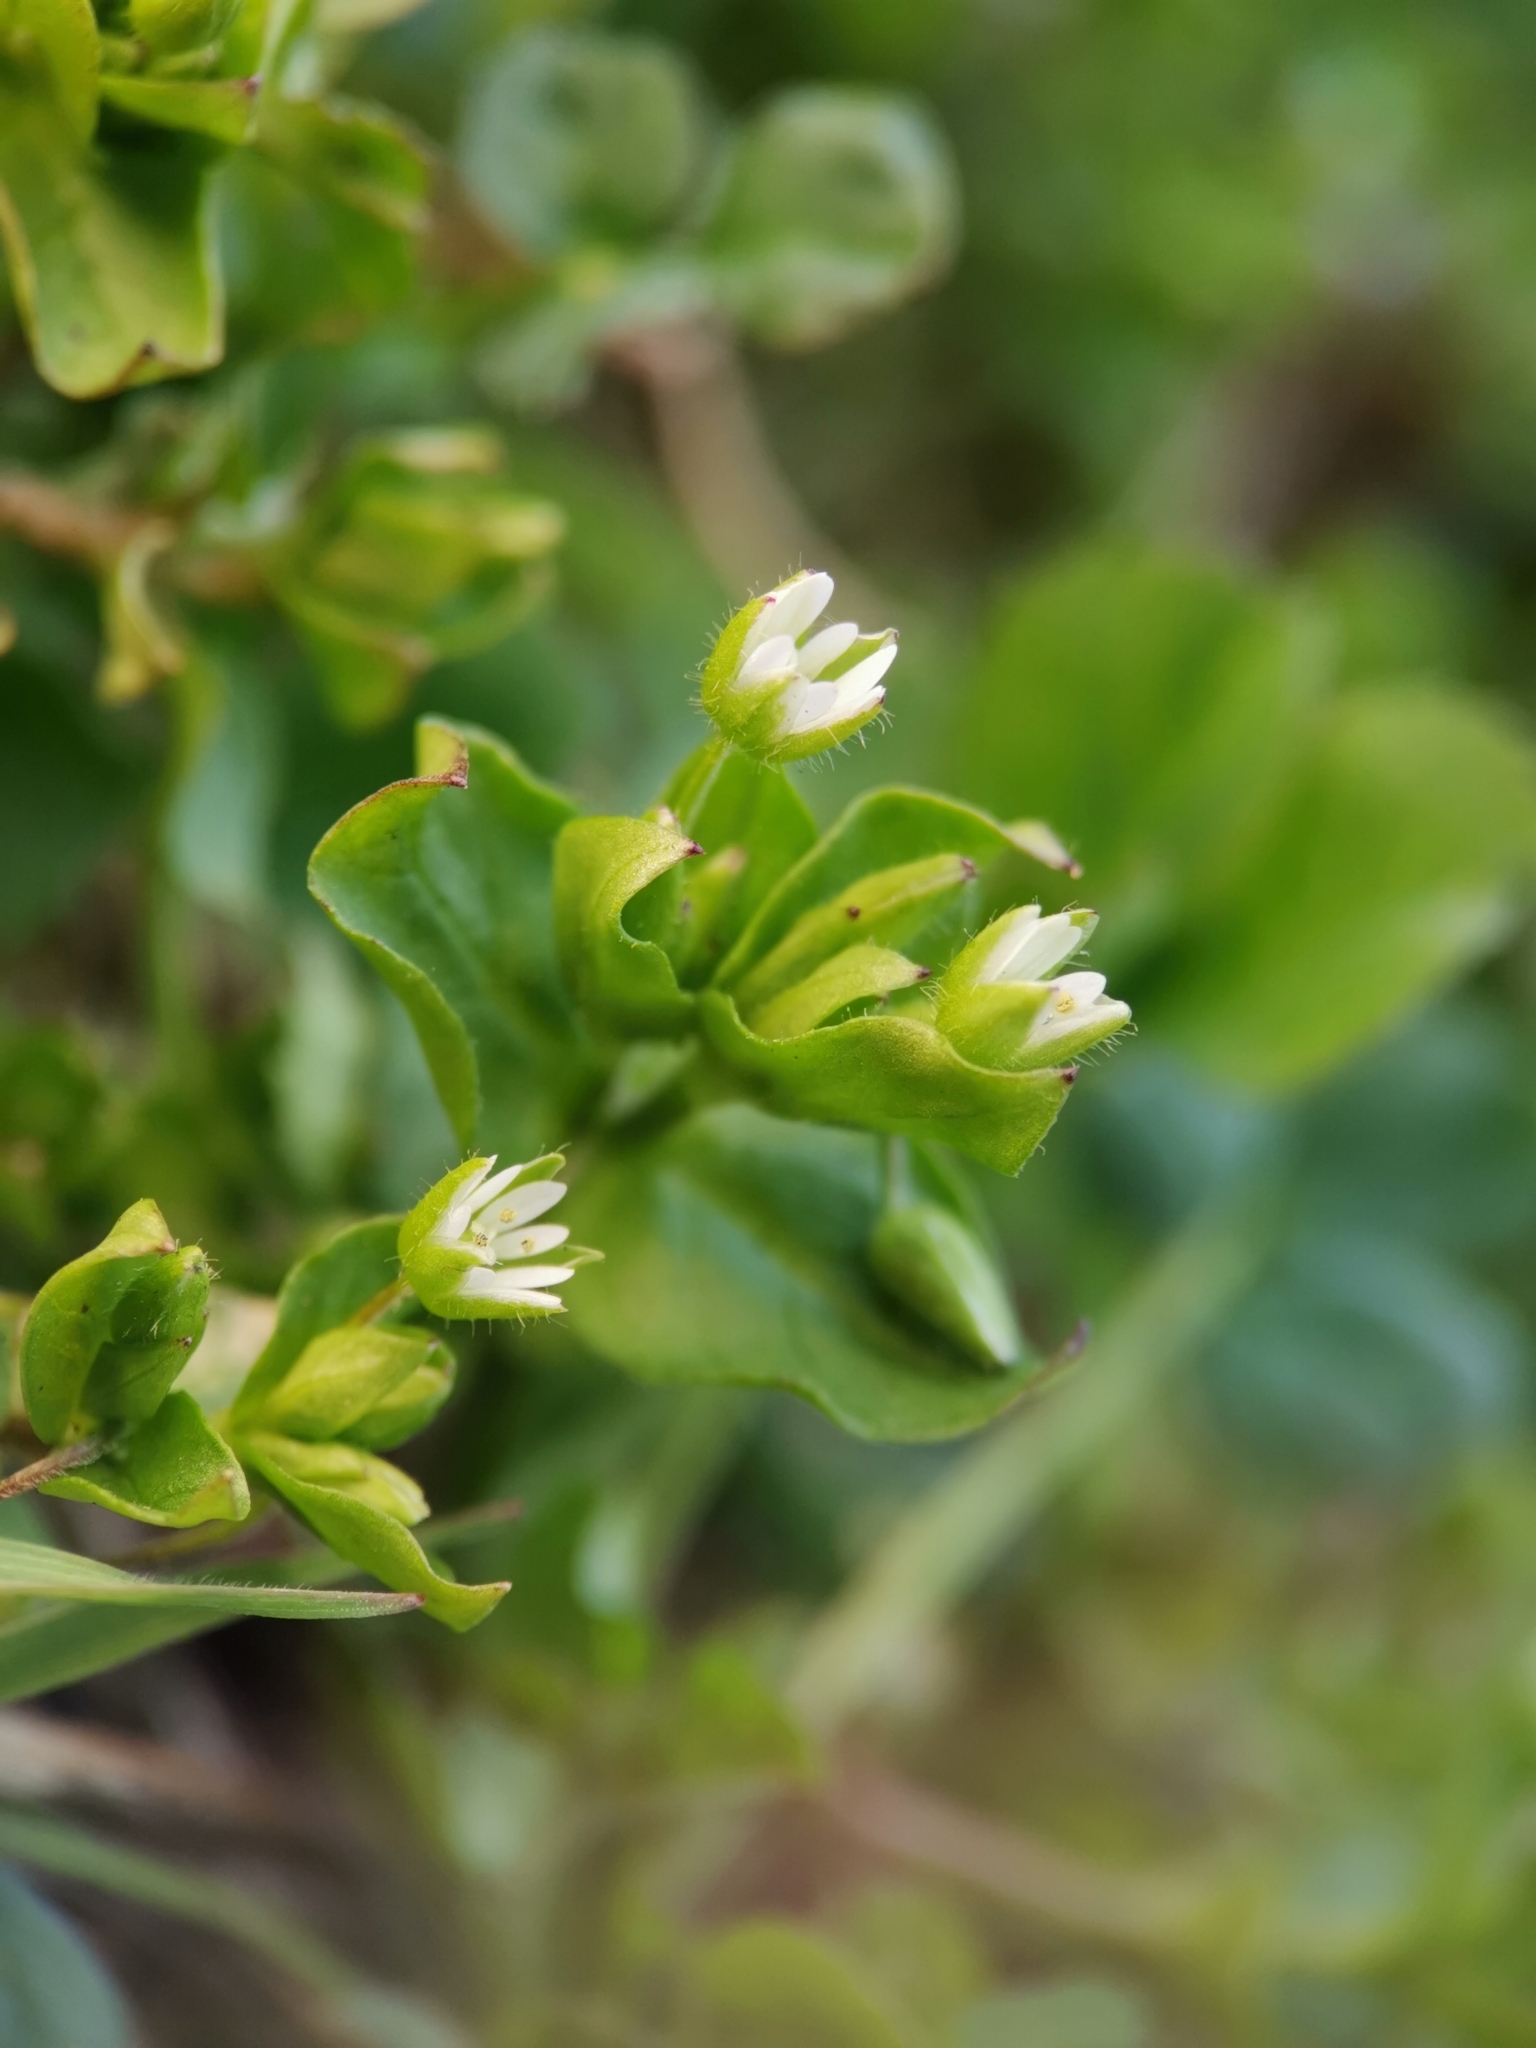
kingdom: Plantae
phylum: Tracheophyta
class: Magnoliopsida
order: Caryophyllales
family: Caryophyllaceae
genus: Stellaria
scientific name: Stellaria media
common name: Common chickweed
